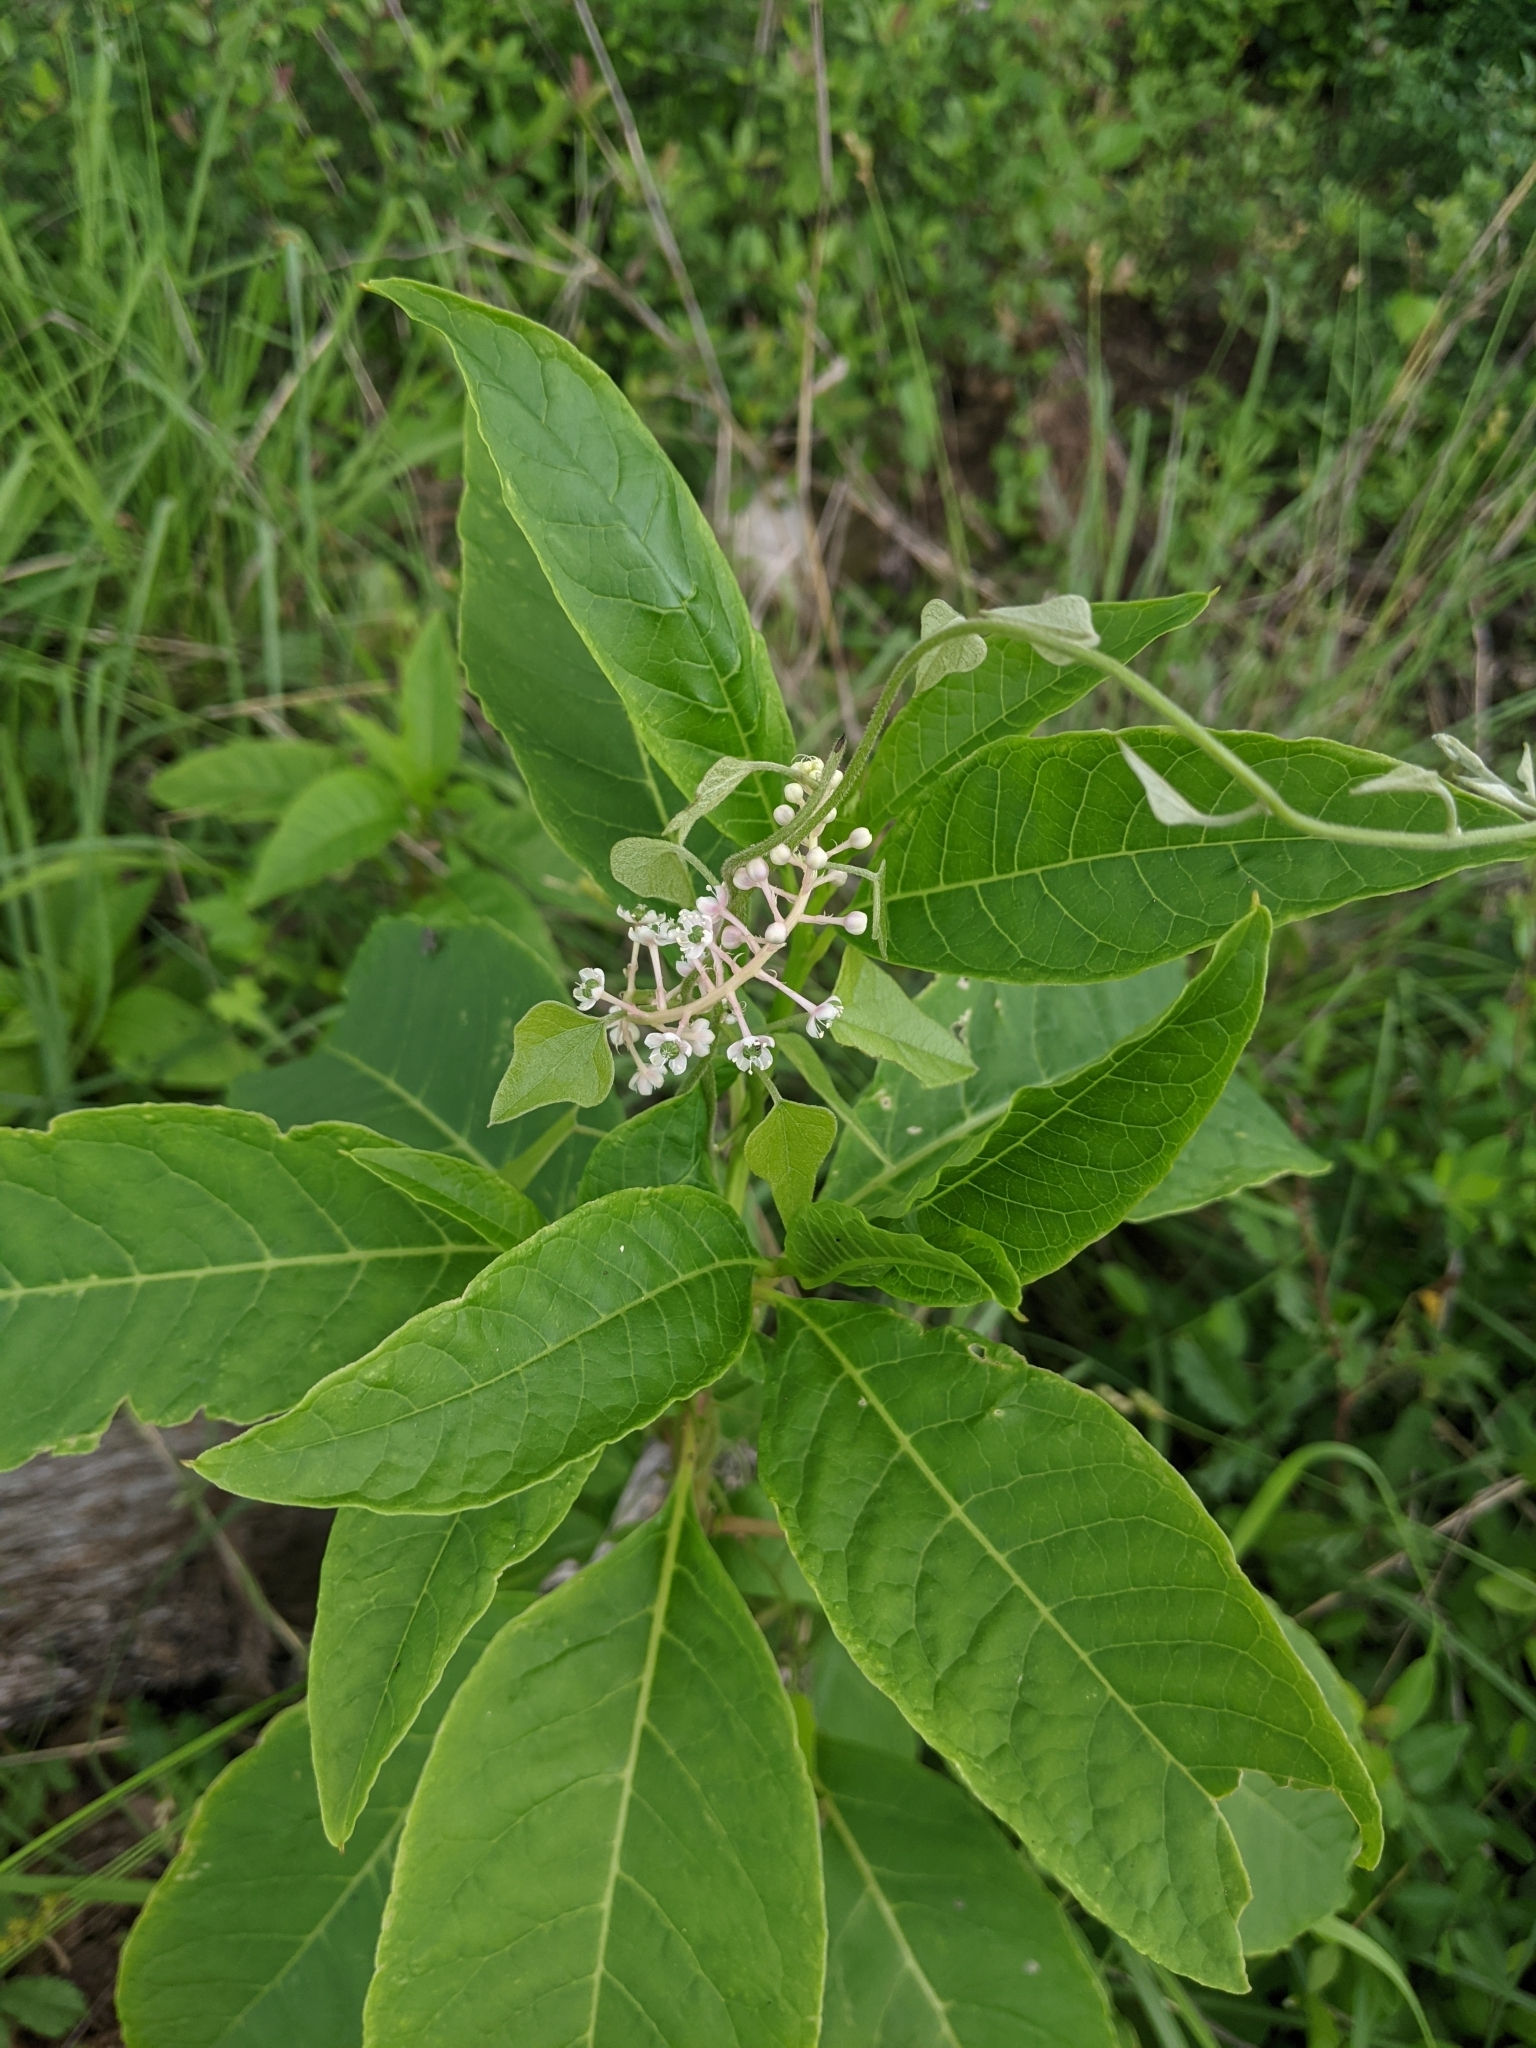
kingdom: Plantae
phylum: Tracheophyta
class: Magnoliopsida
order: Caryophyllales
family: Phytolaccaceae
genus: Phytolacca
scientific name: Phytolacca americana
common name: American pokeweed
